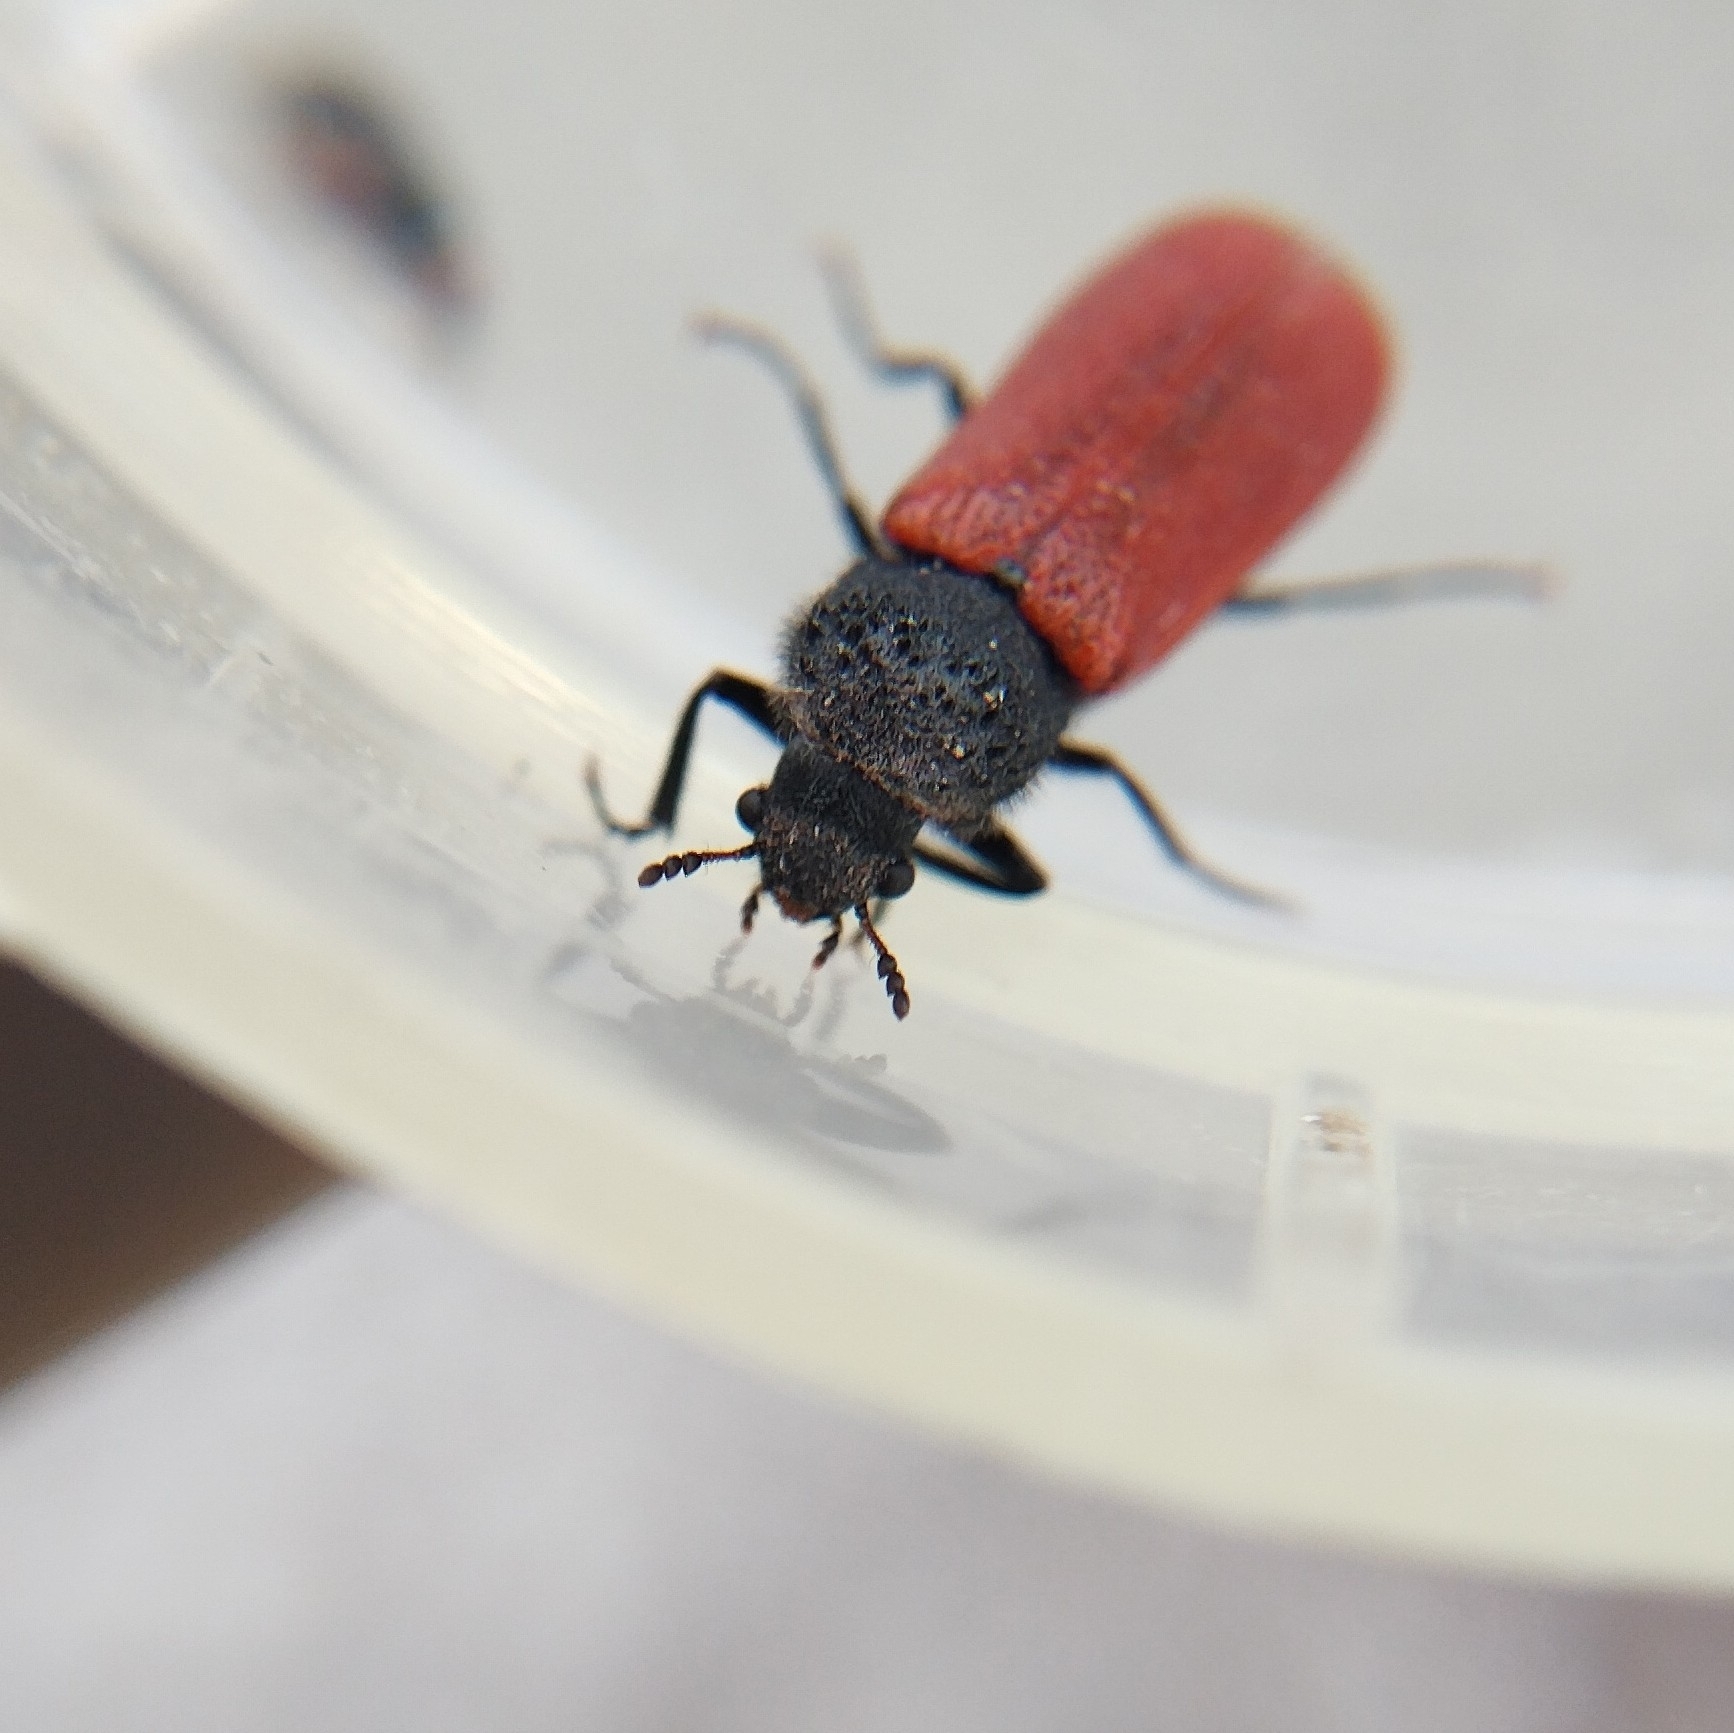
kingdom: Animalia
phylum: Arthropoda
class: Insecta
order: Coleoptera
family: Bostrichidae
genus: Bostrichus
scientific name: Bostrichus capucinus
